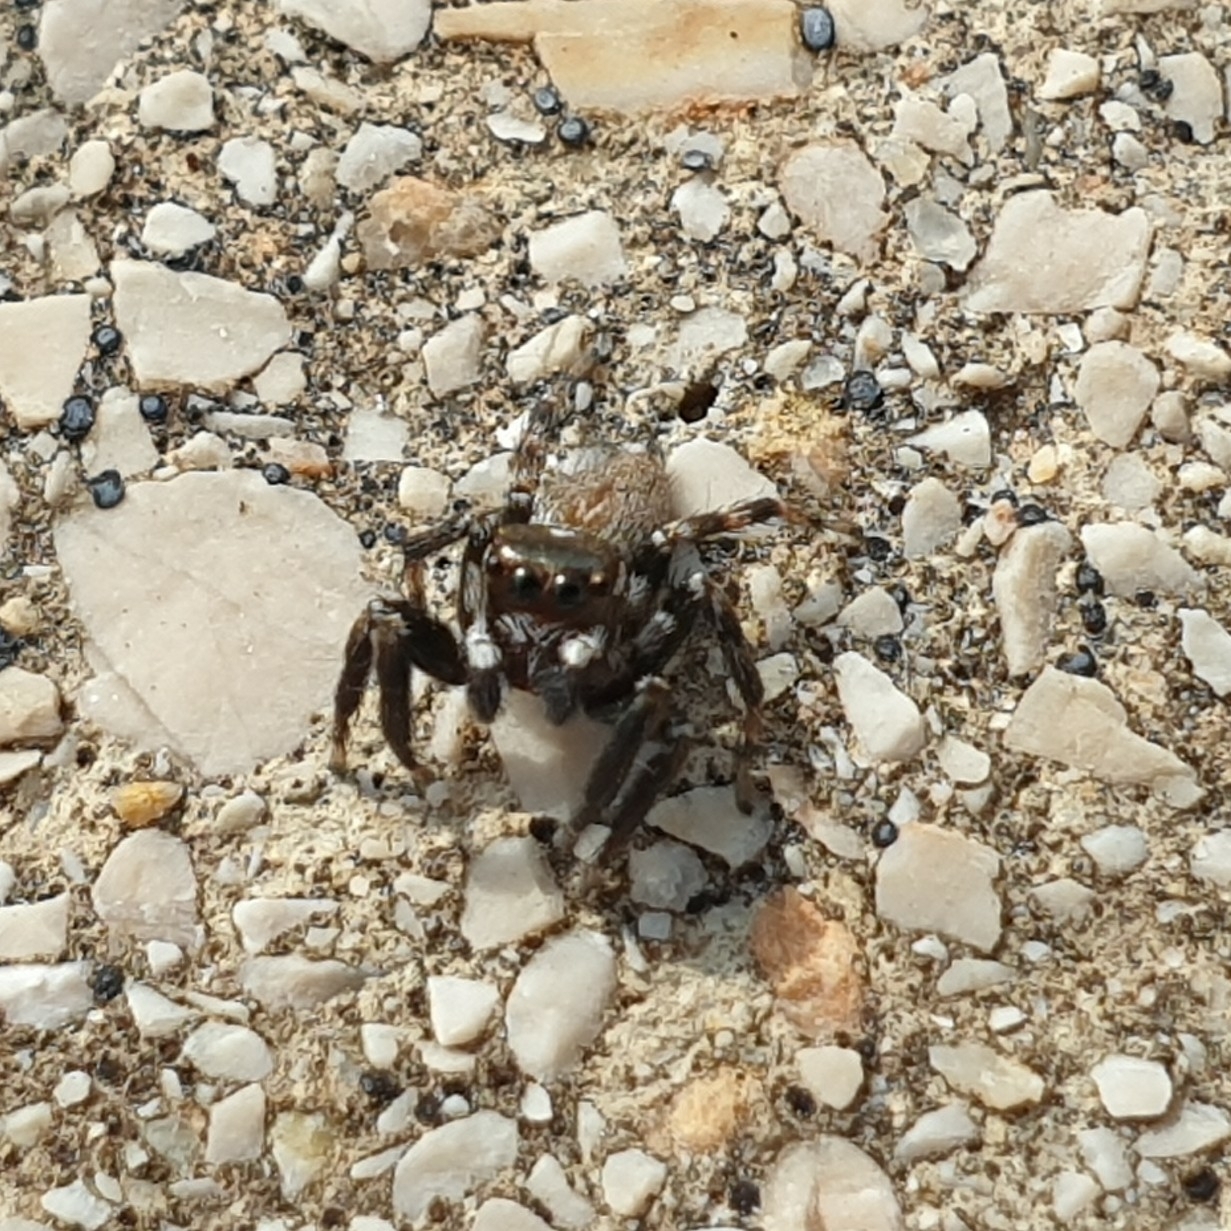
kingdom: Animalia
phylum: Arthropoda
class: Arachnida
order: Araneae
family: Salticidae
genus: Evarcha
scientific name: Evarcha jucunda
